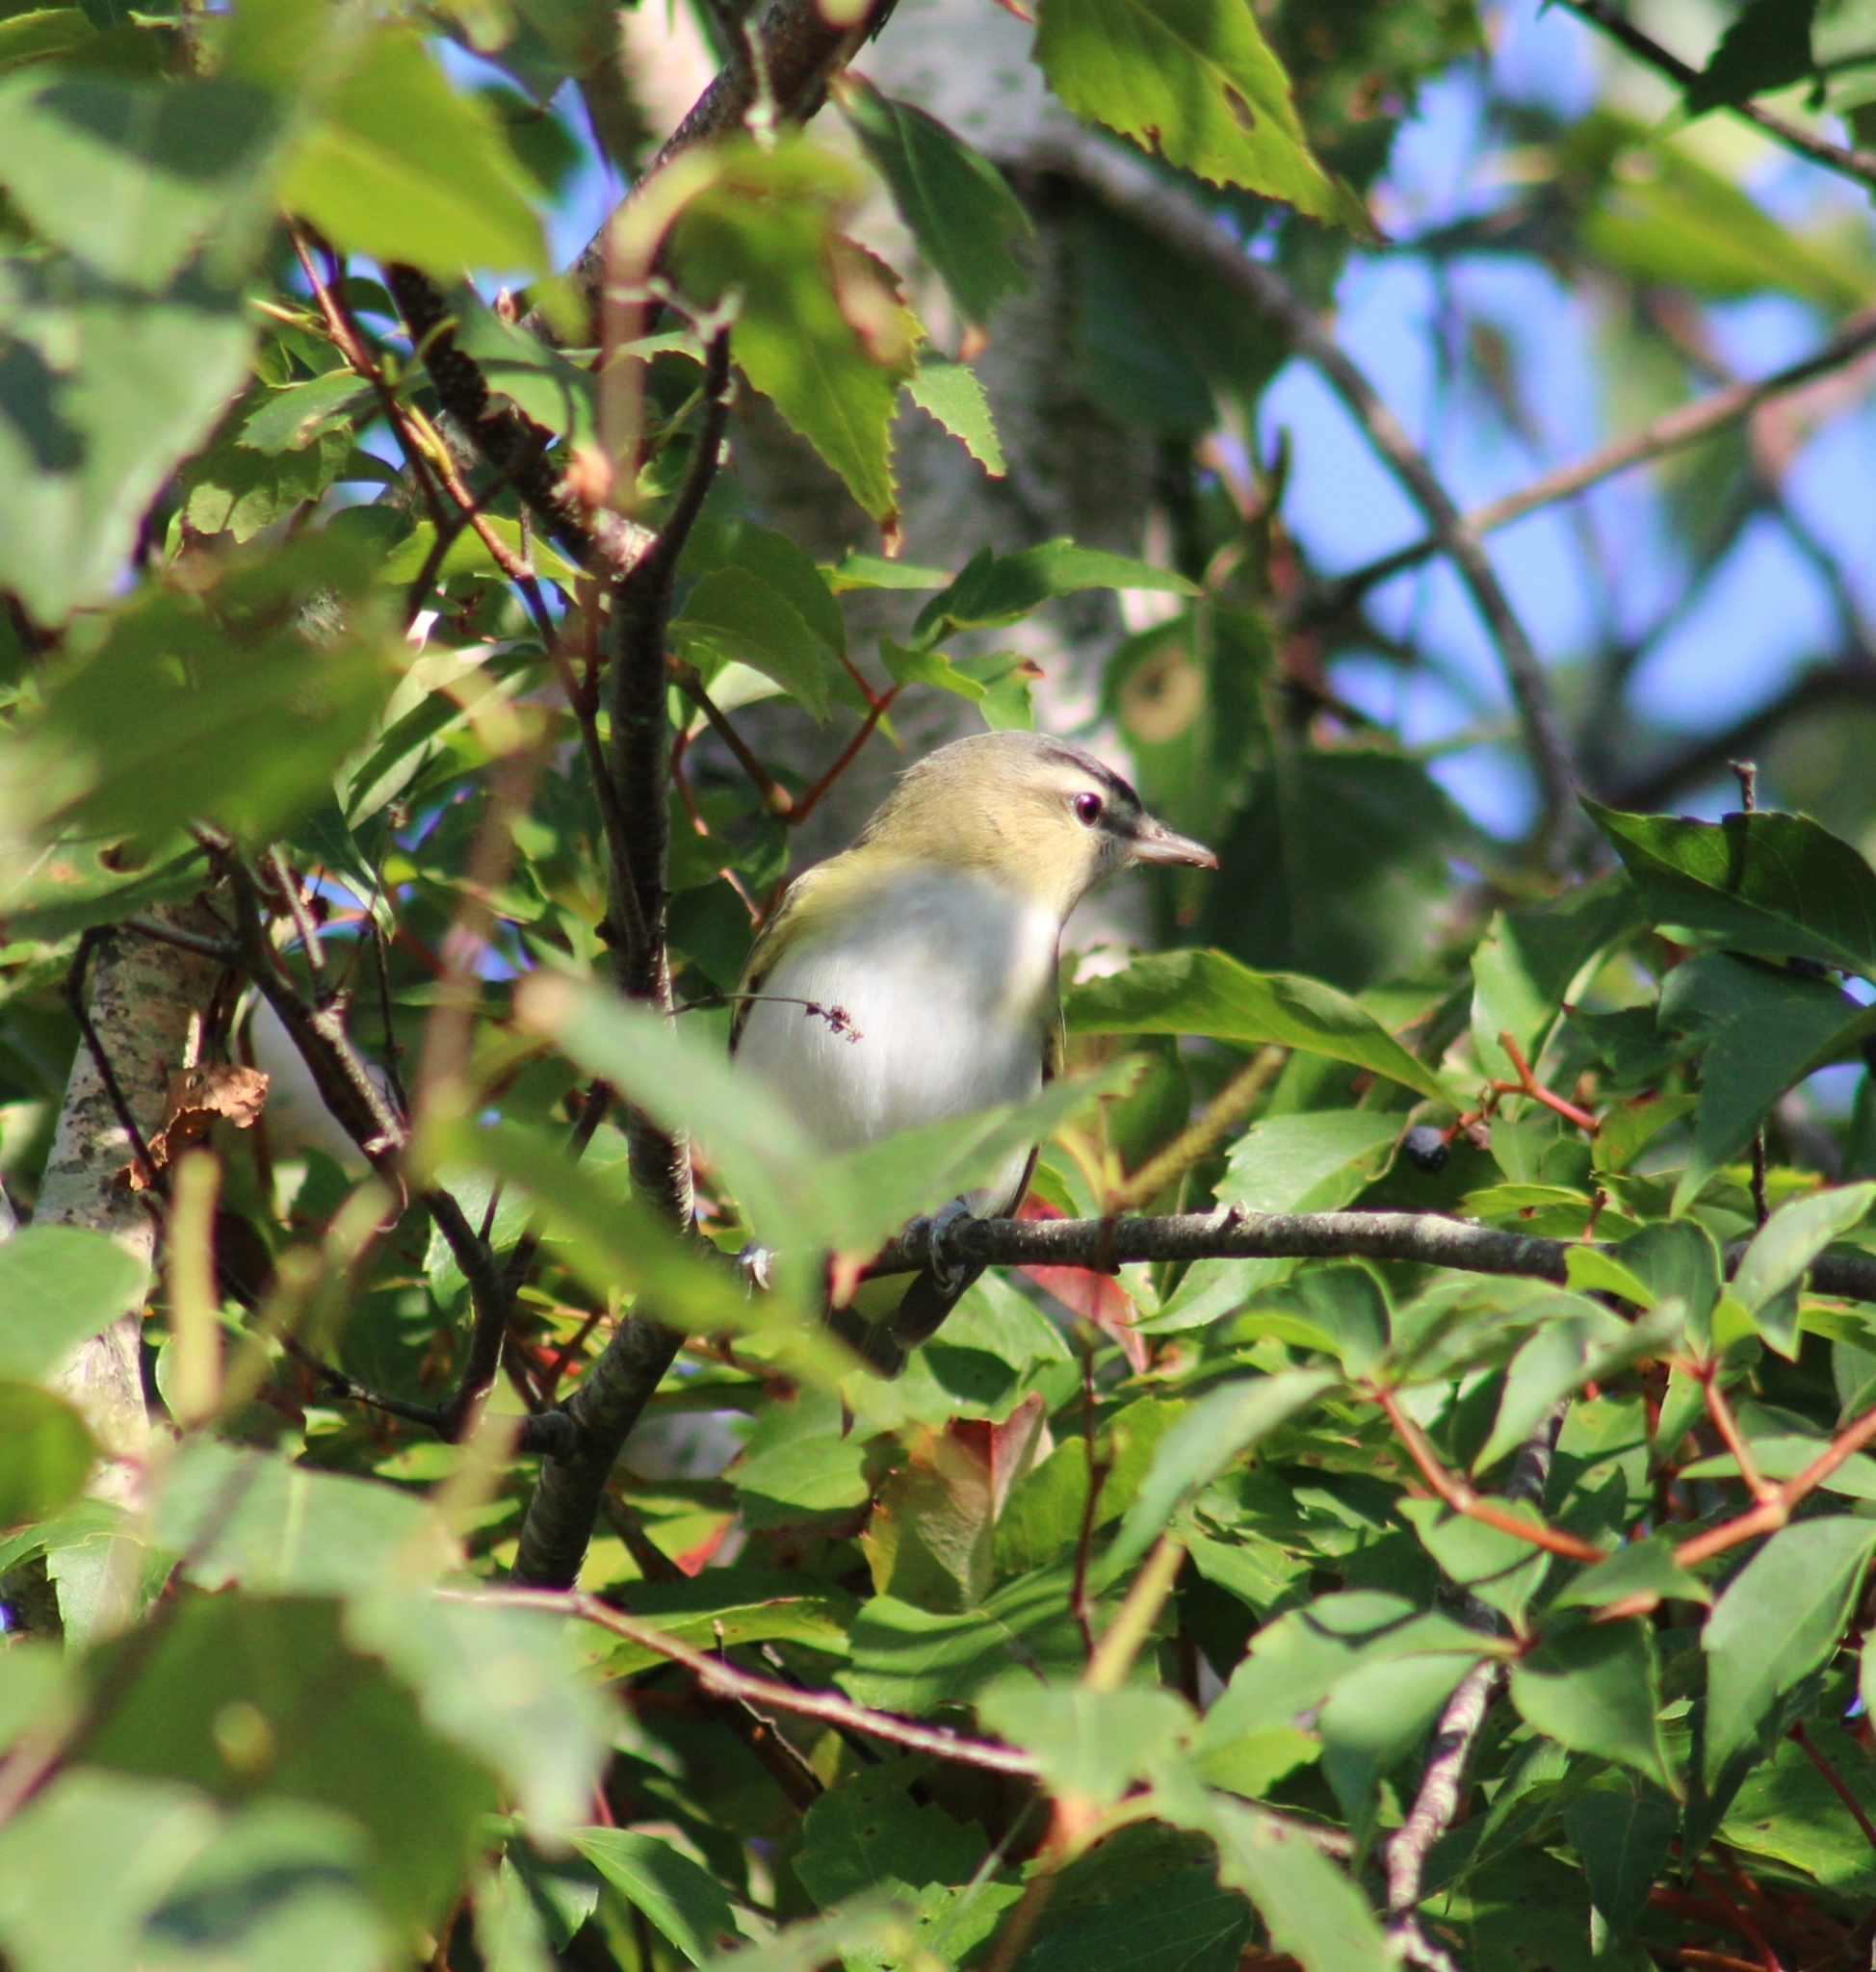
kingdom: Animalia
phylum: Chordata
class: Aves
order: Passeriformes
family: Vireonidae
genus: Vireo
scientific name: Vireo olivaceus
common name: Red-eyed vireo
